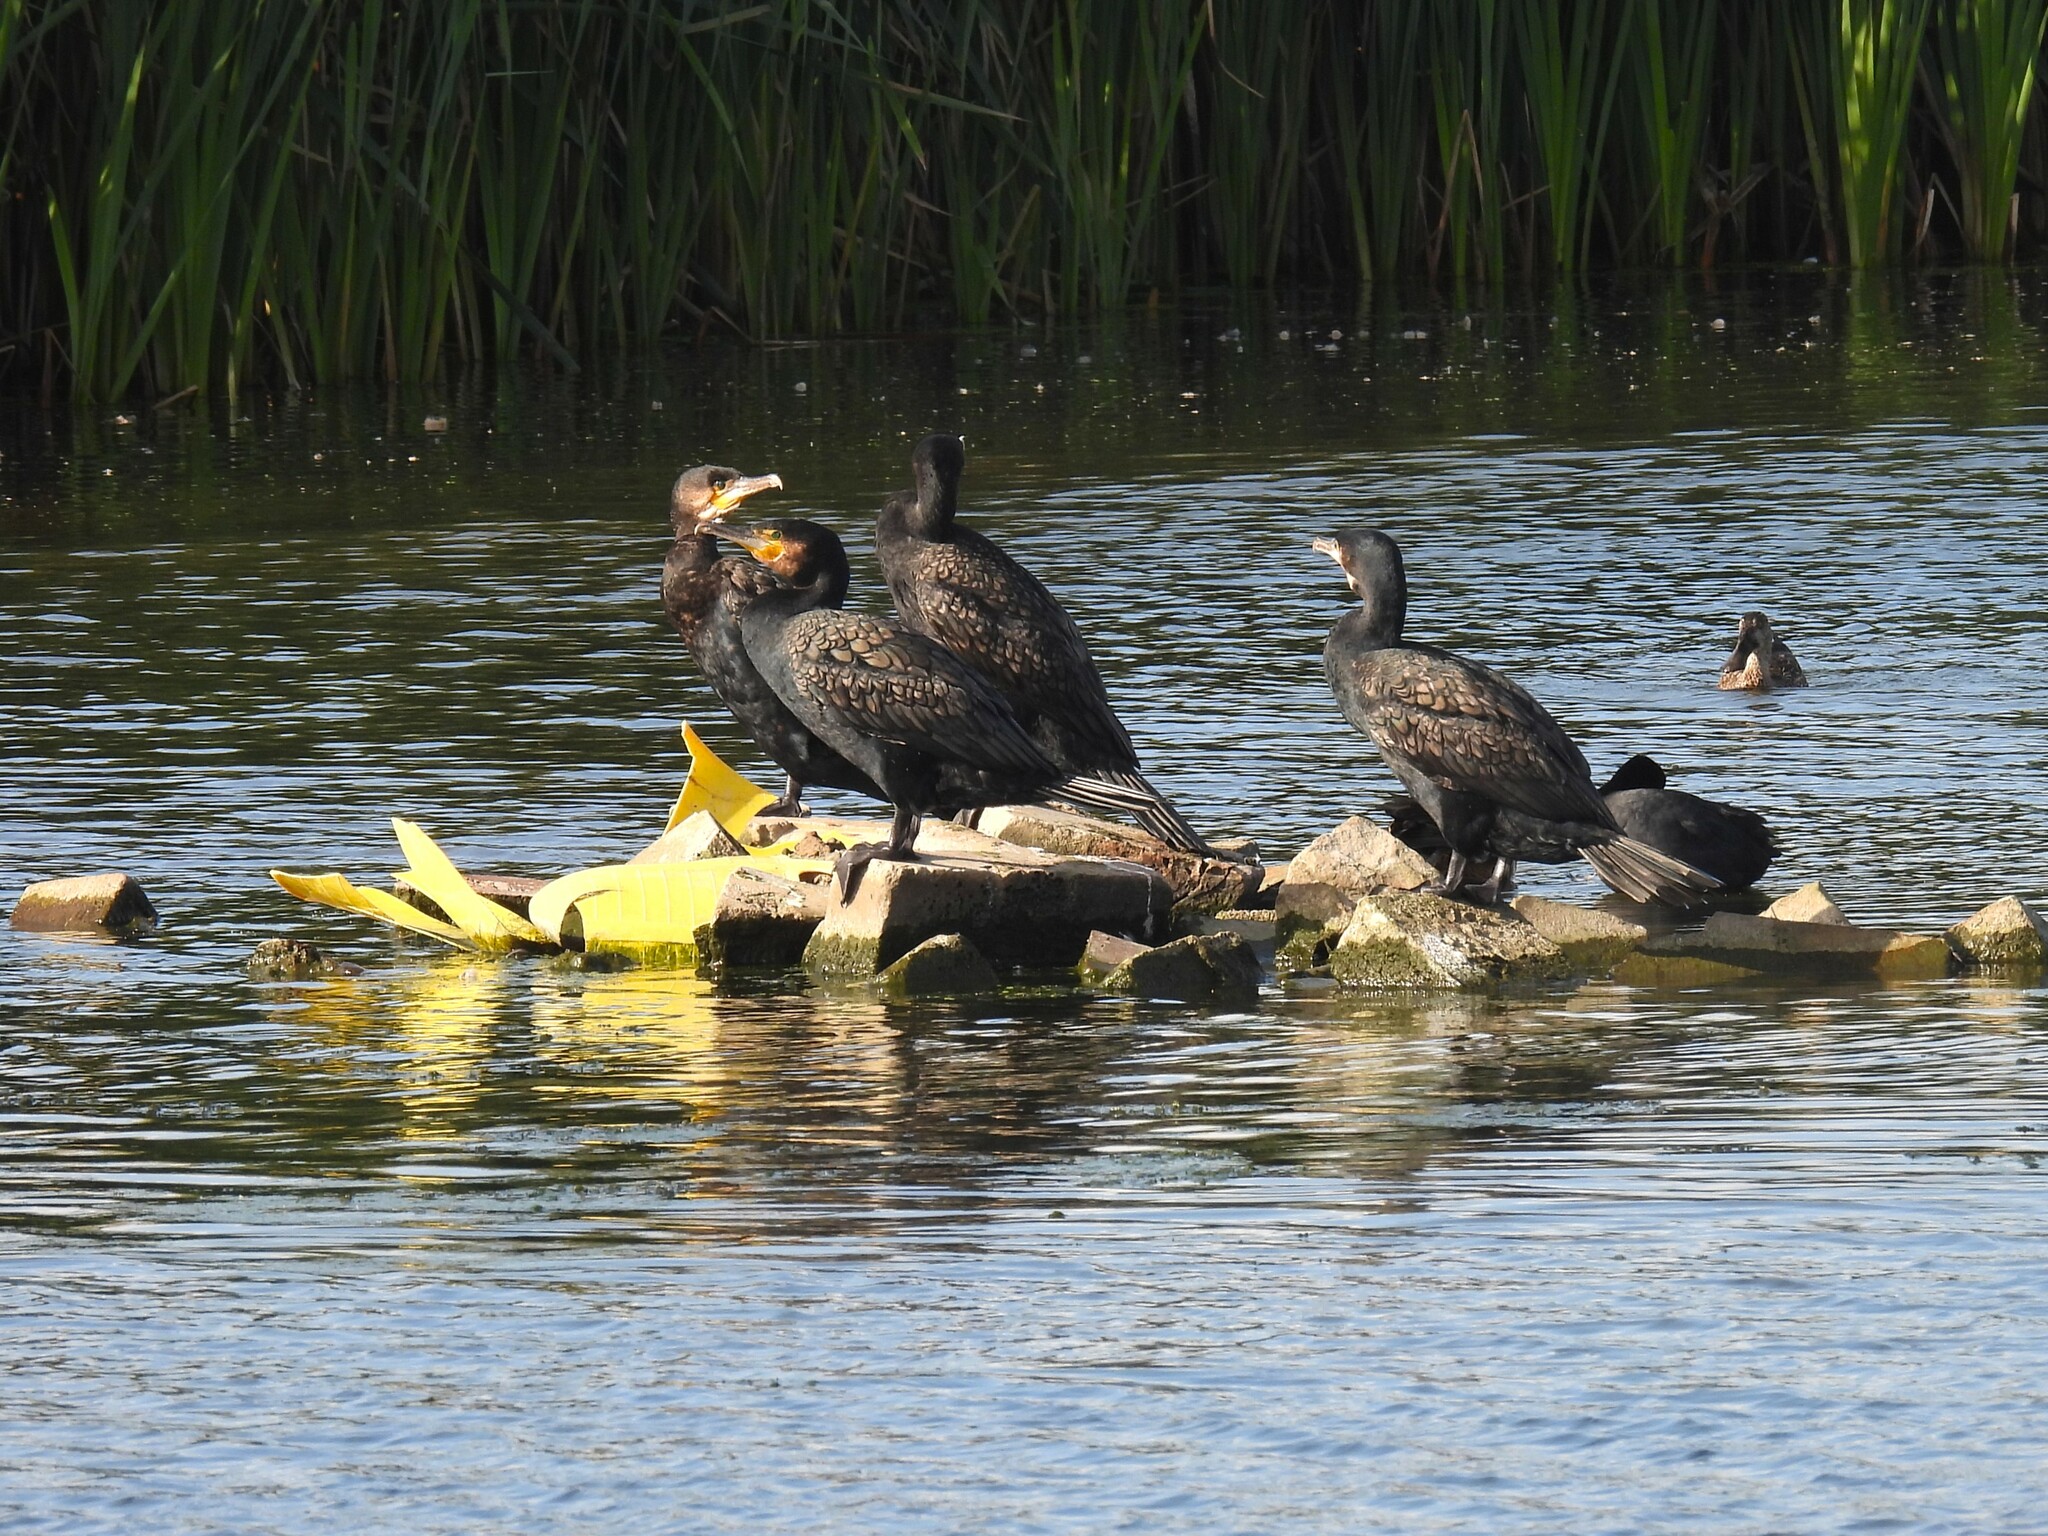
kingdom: Animalia
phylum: Chordata
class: Aves
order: Suliformes
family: Phalacrocoracidae
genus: Phalacrocorax
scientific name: Phalacrocorax carbo
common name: Great cormorant
